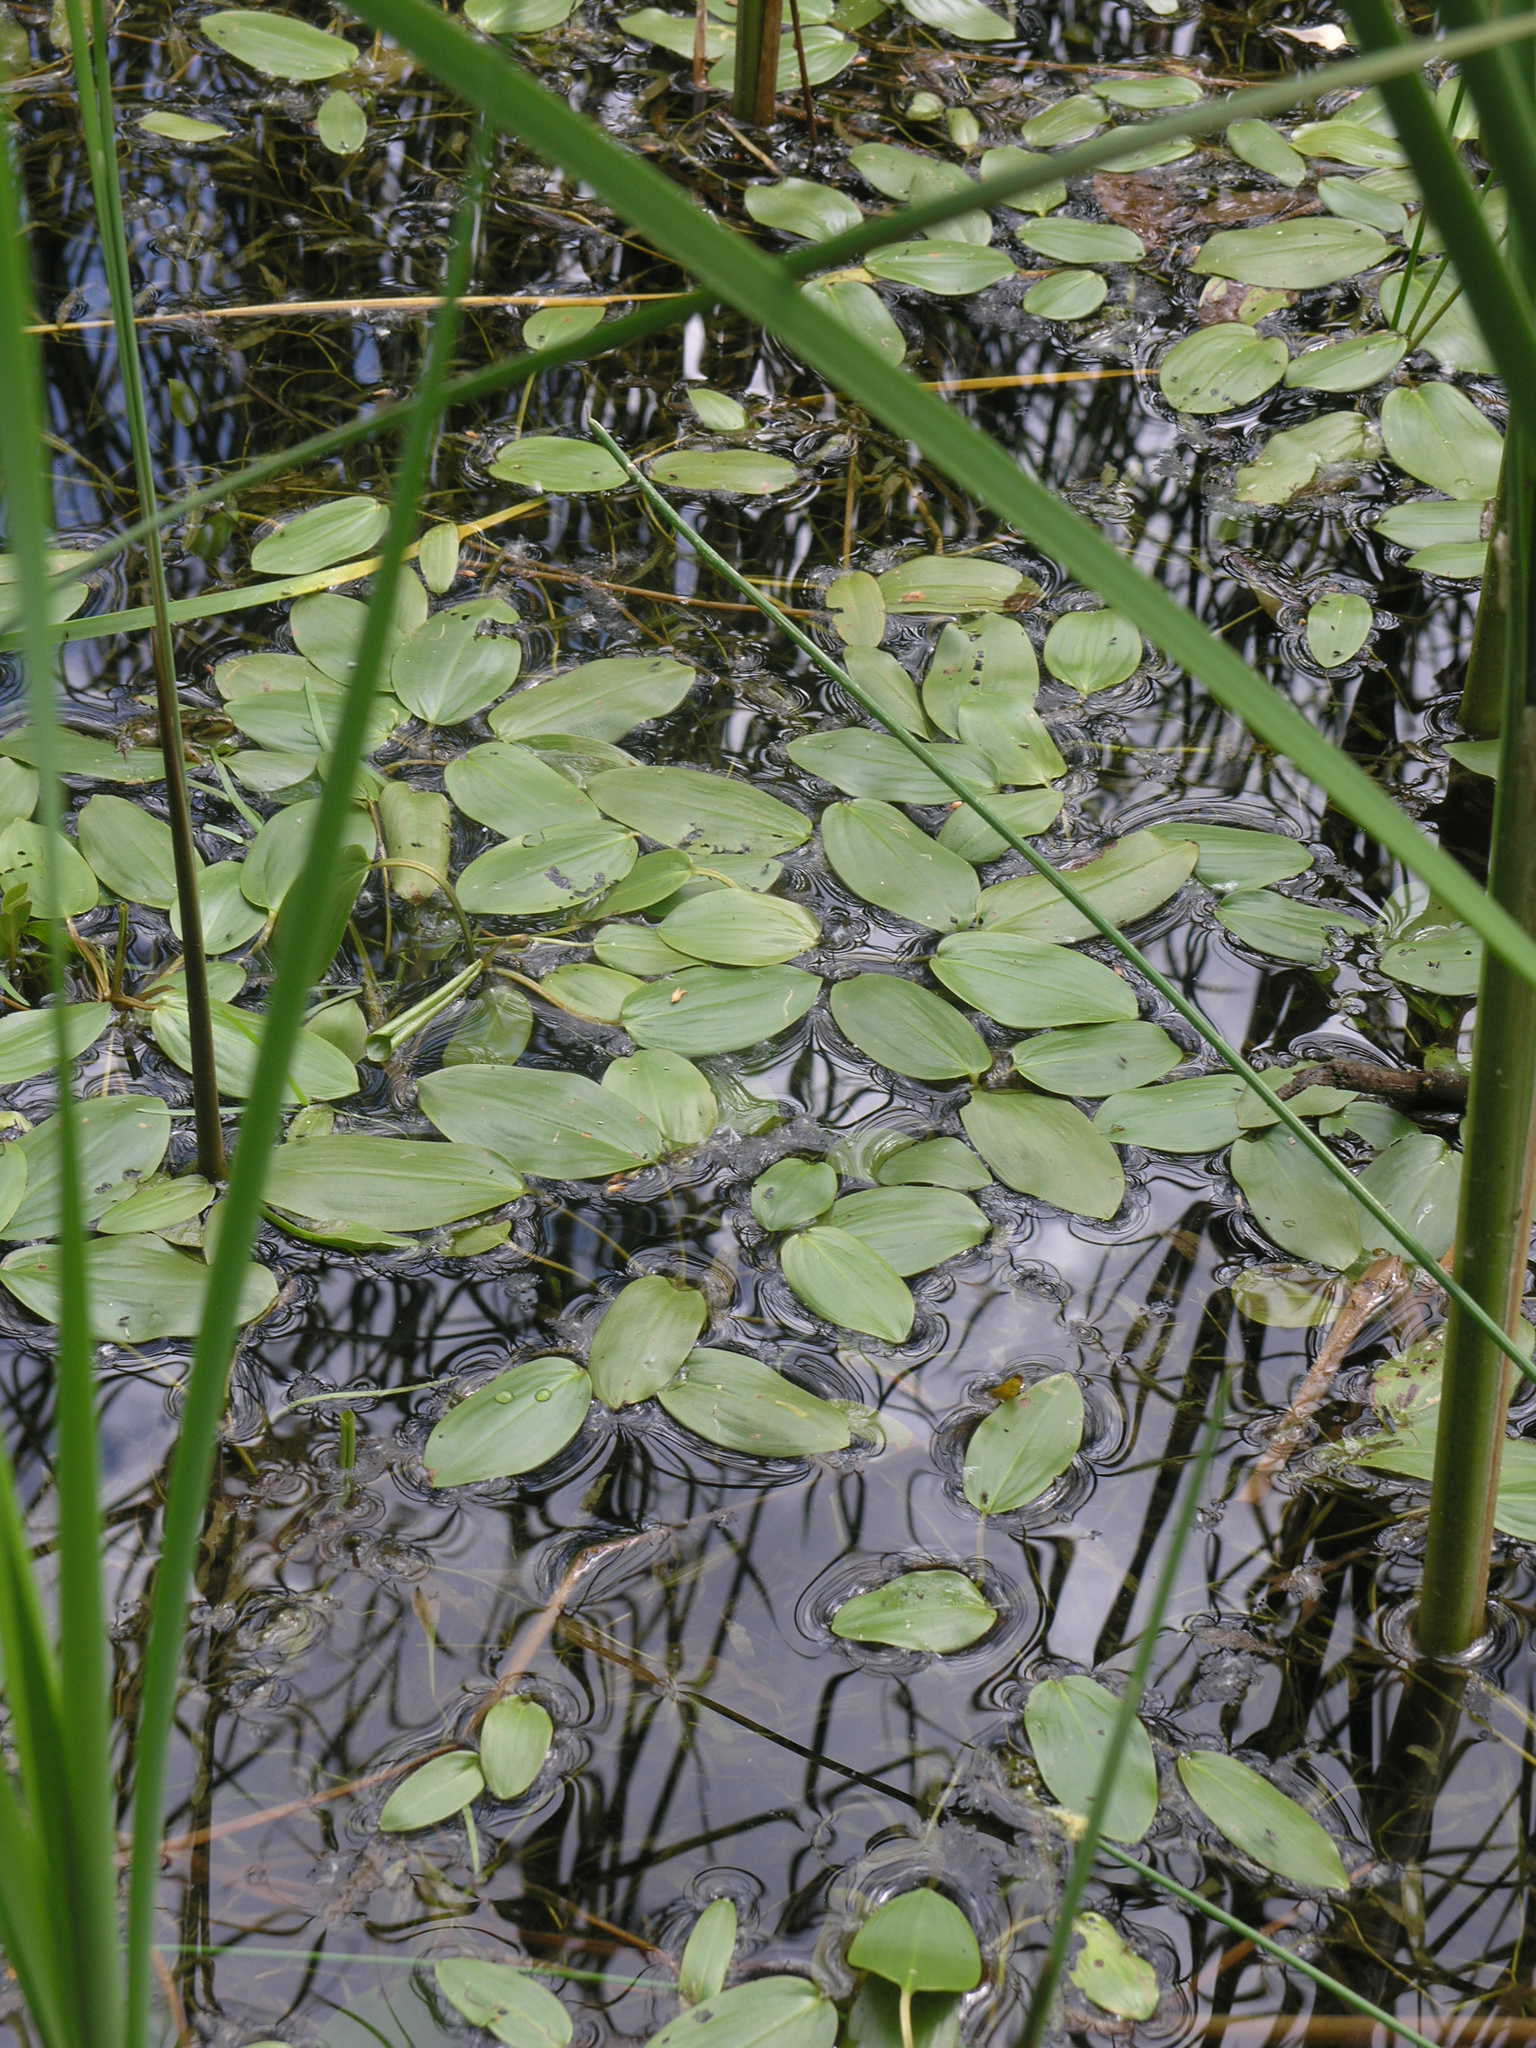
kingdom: Plantae
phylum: Tracheophyta
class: Liliopsida
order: Alismatales
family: Potamogetonaceae
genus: Potamogeton
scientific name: Potamogeton natans
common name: Broad-leaved pondweed
